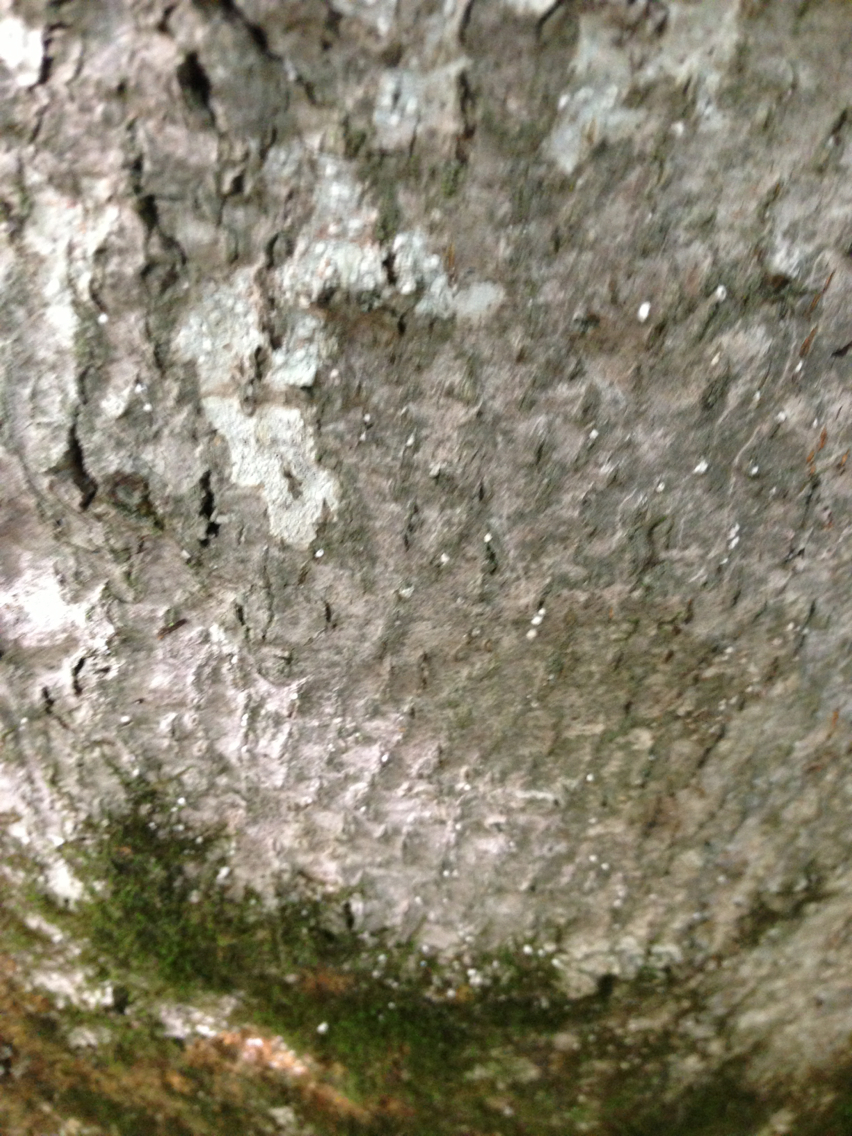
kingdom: Animalia
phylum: Arthropoda
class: Insecta
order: Hemiptera
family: Eriococcidae
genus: Cryptococcus
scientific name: Cryptococcus fagisuga
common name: Beech scale
